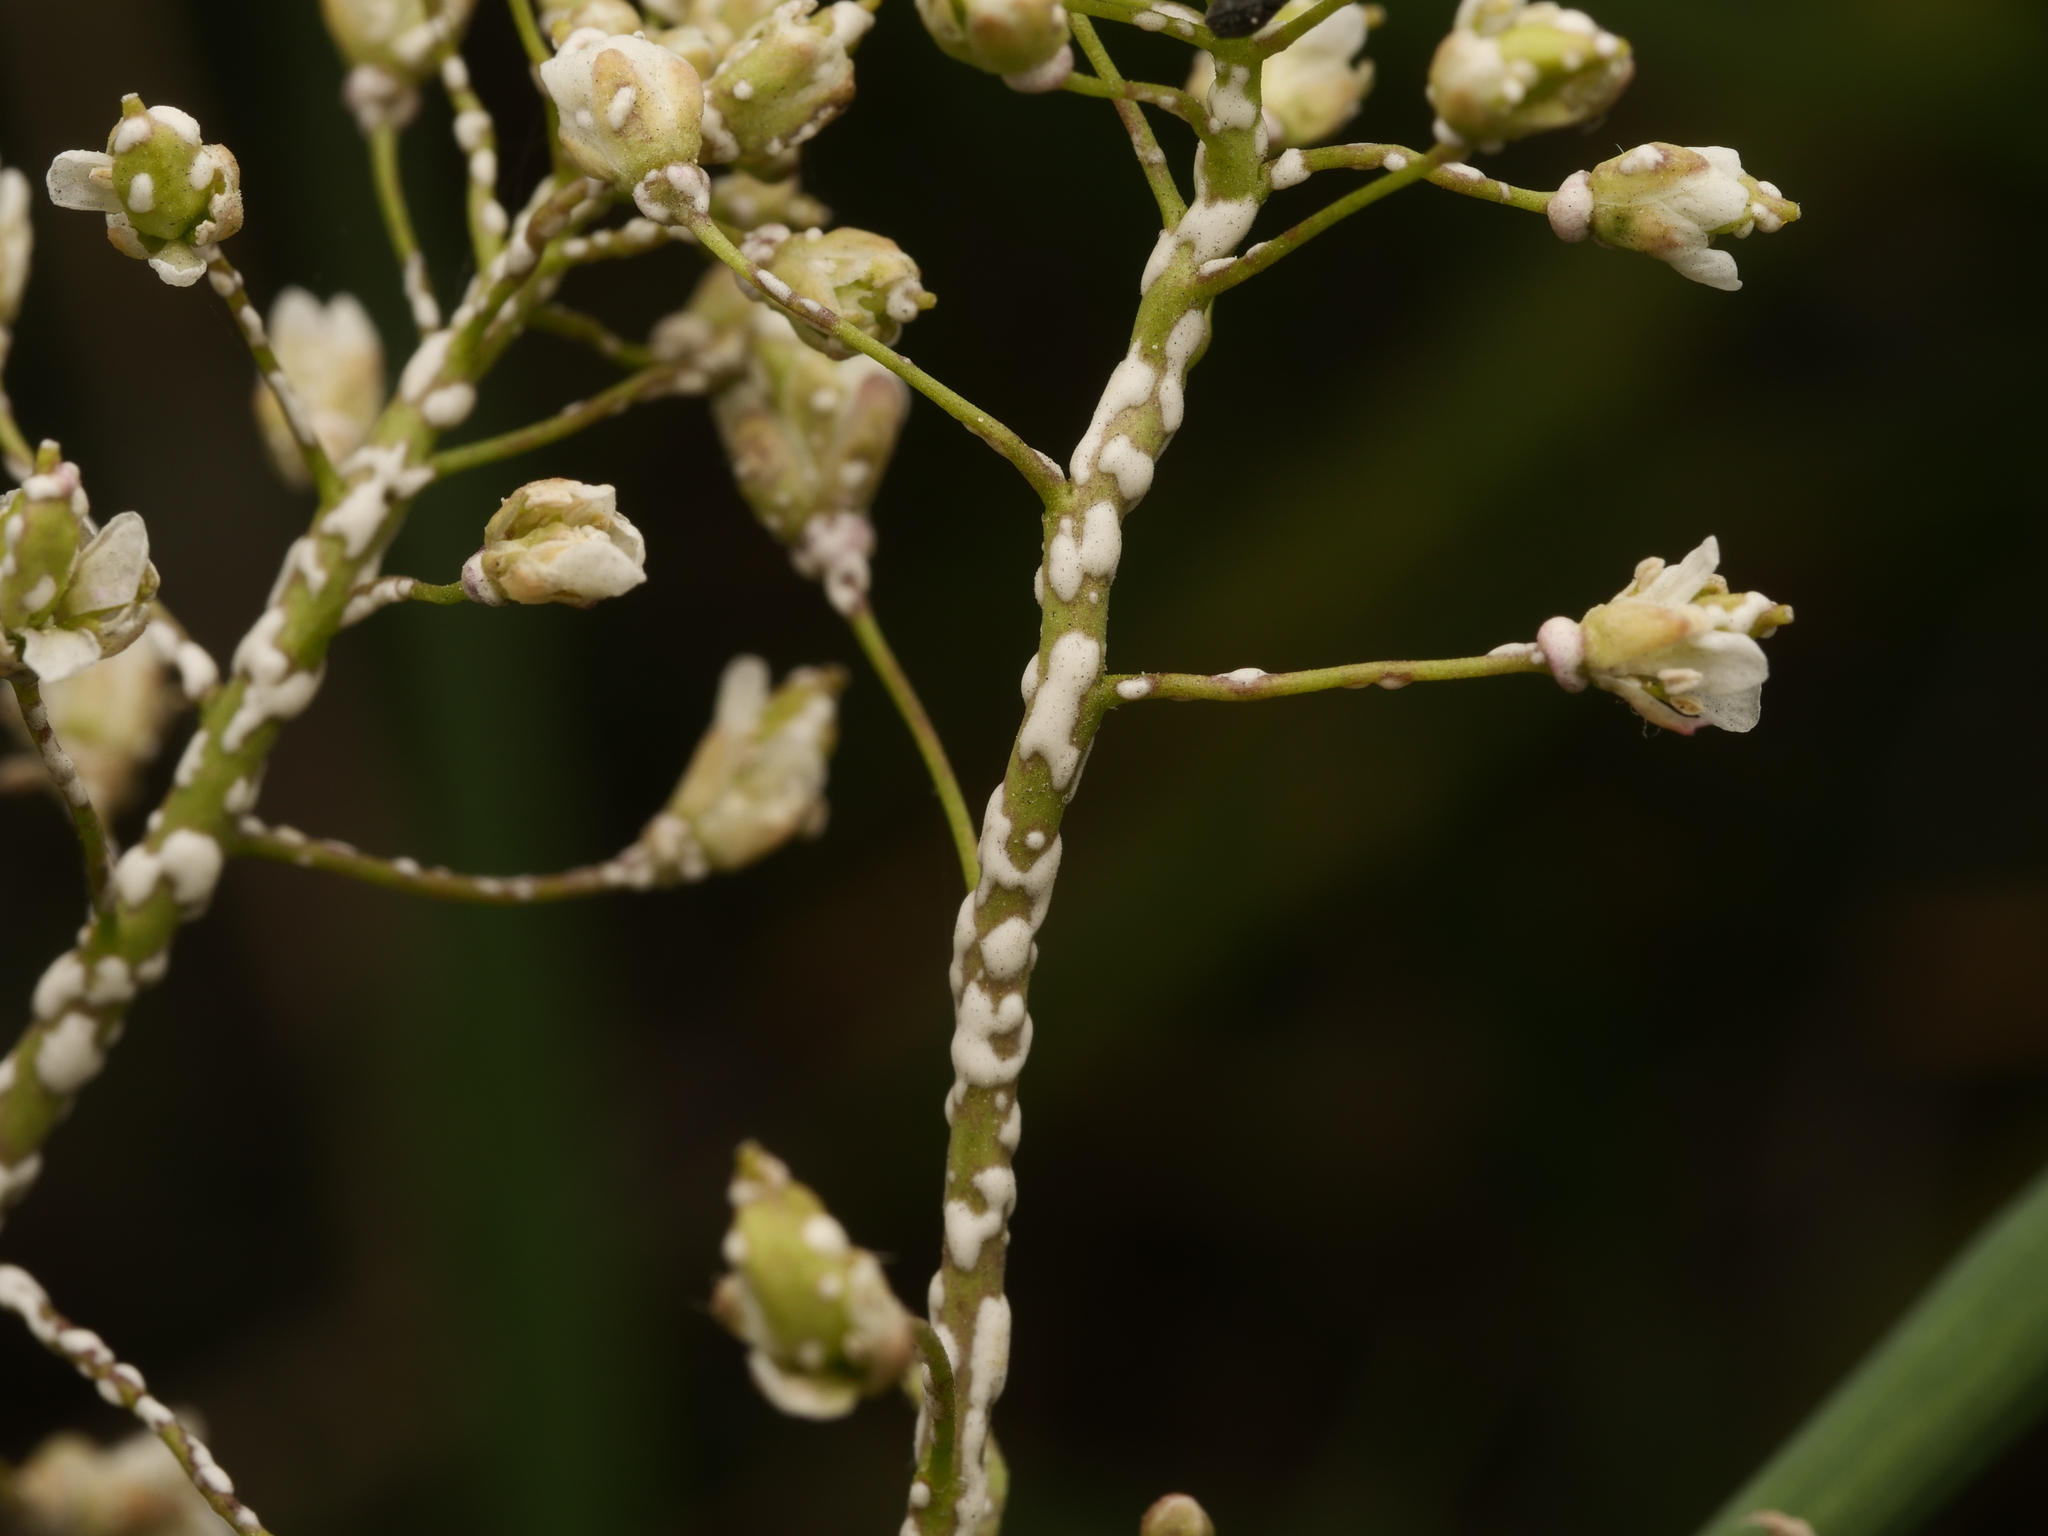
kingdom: Chromista
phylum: Oomycota
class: Peronosporea
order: Albuginales
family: Albuginaceae
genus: Albugo
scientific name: Albugo candida
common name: Crucifer white blister
